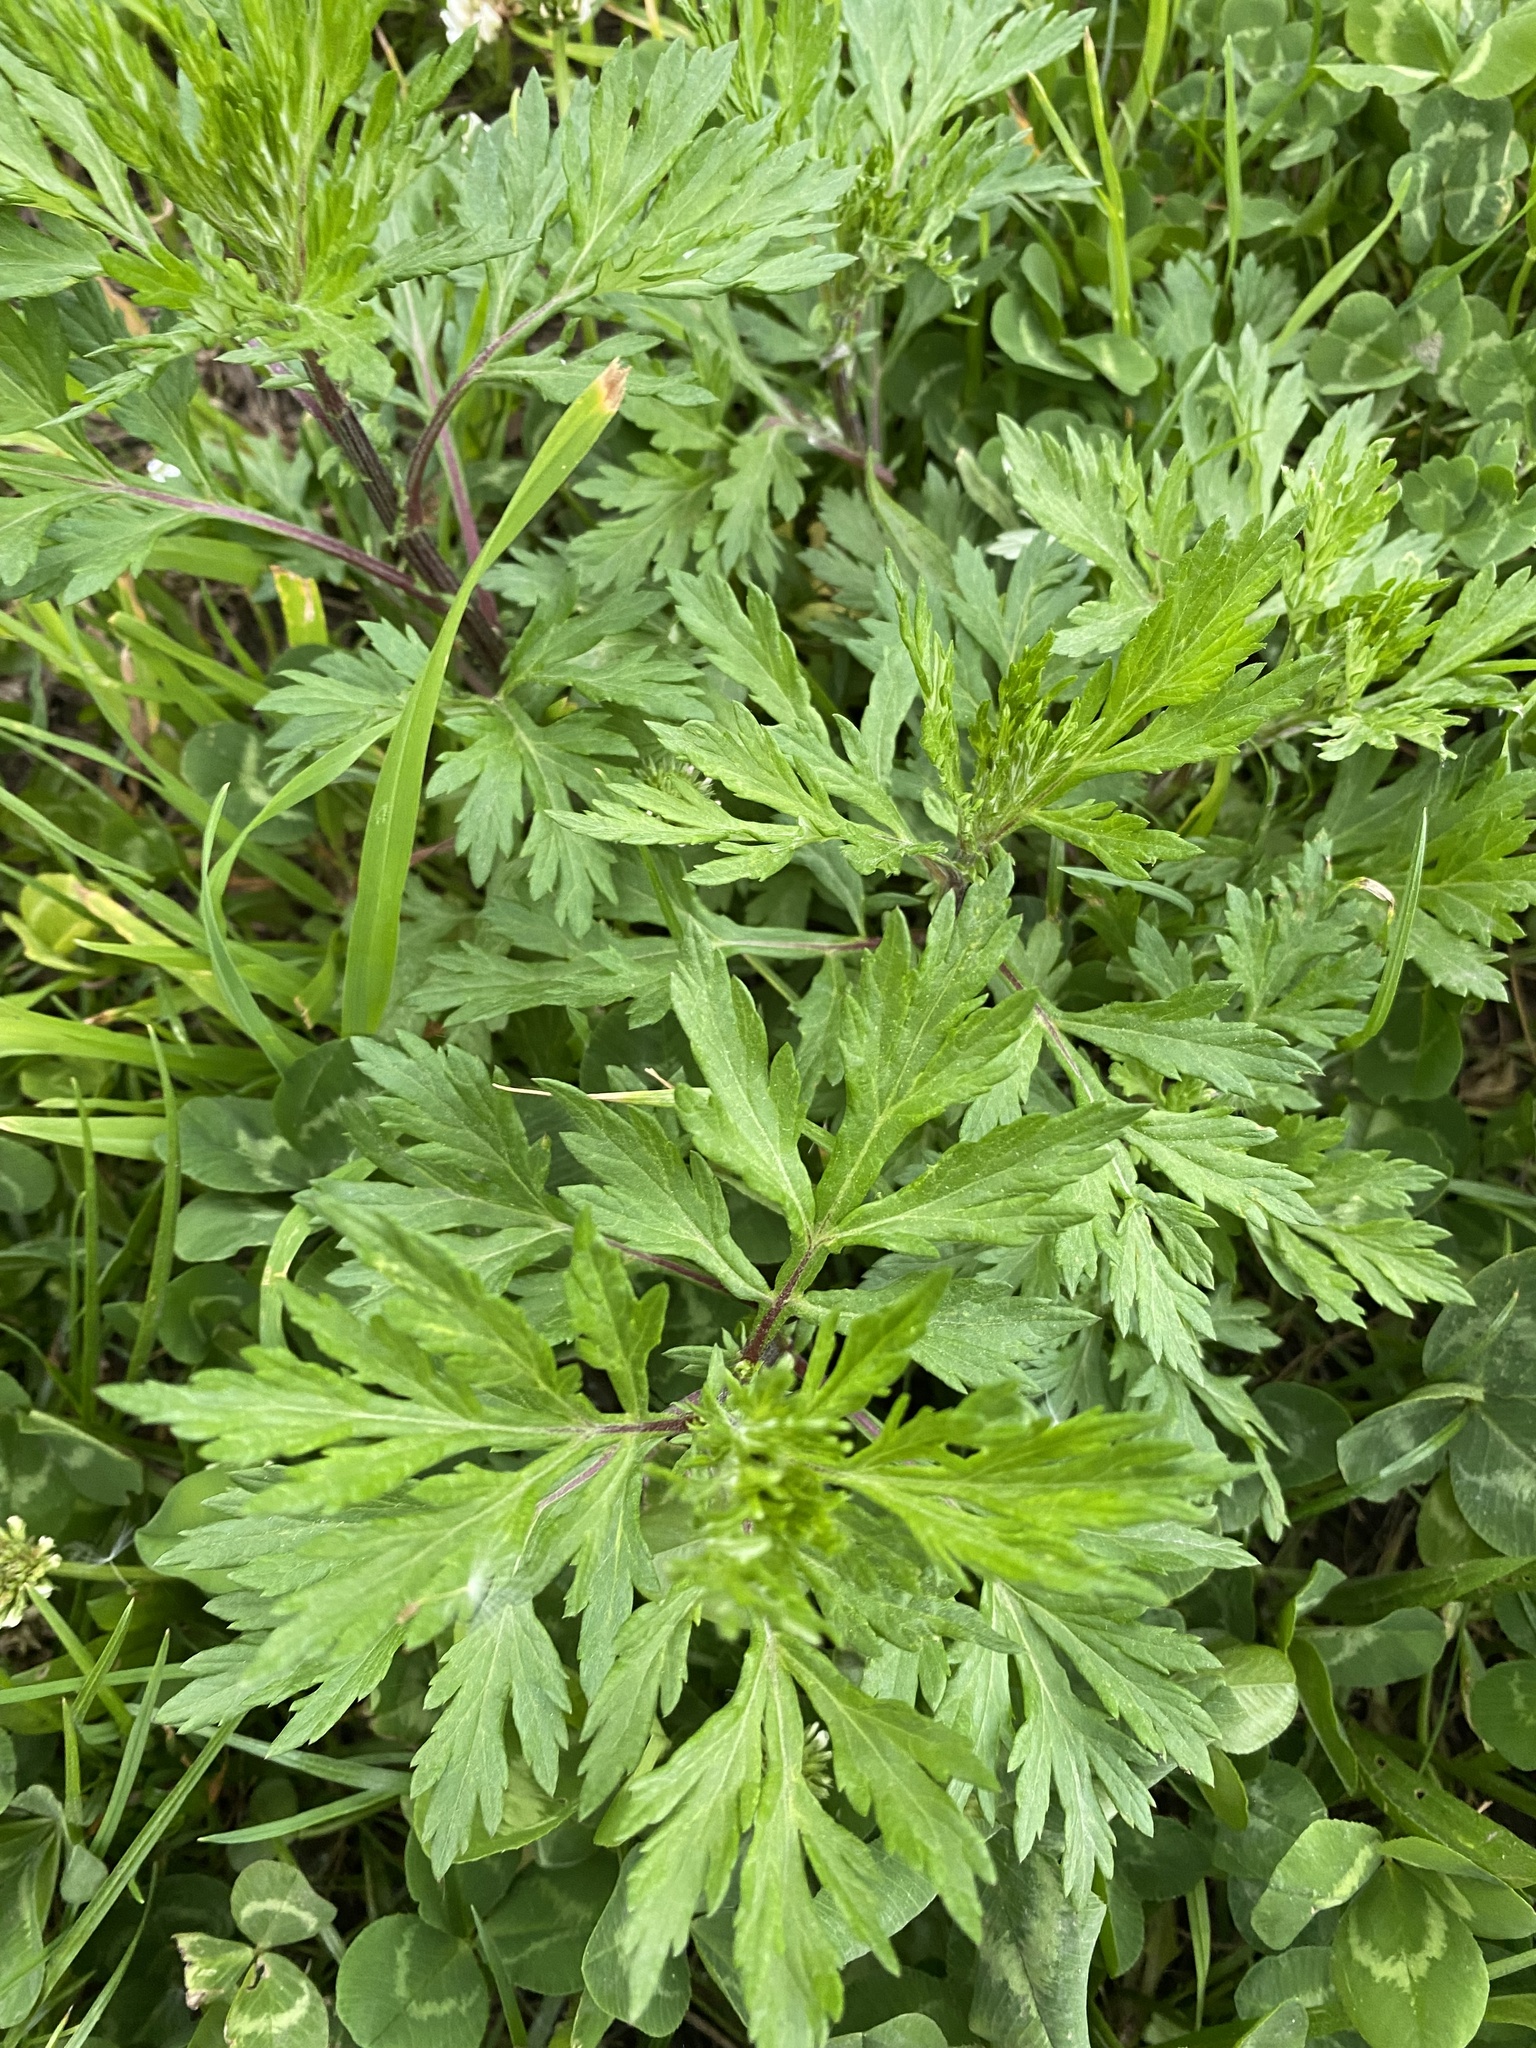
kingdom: Plantae
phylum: Tracheophyta
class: Magnoliopsida
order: Asterales
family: Asteraceae
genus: Artemisia
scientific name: Artemisia vulgaris
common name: Mugwort
